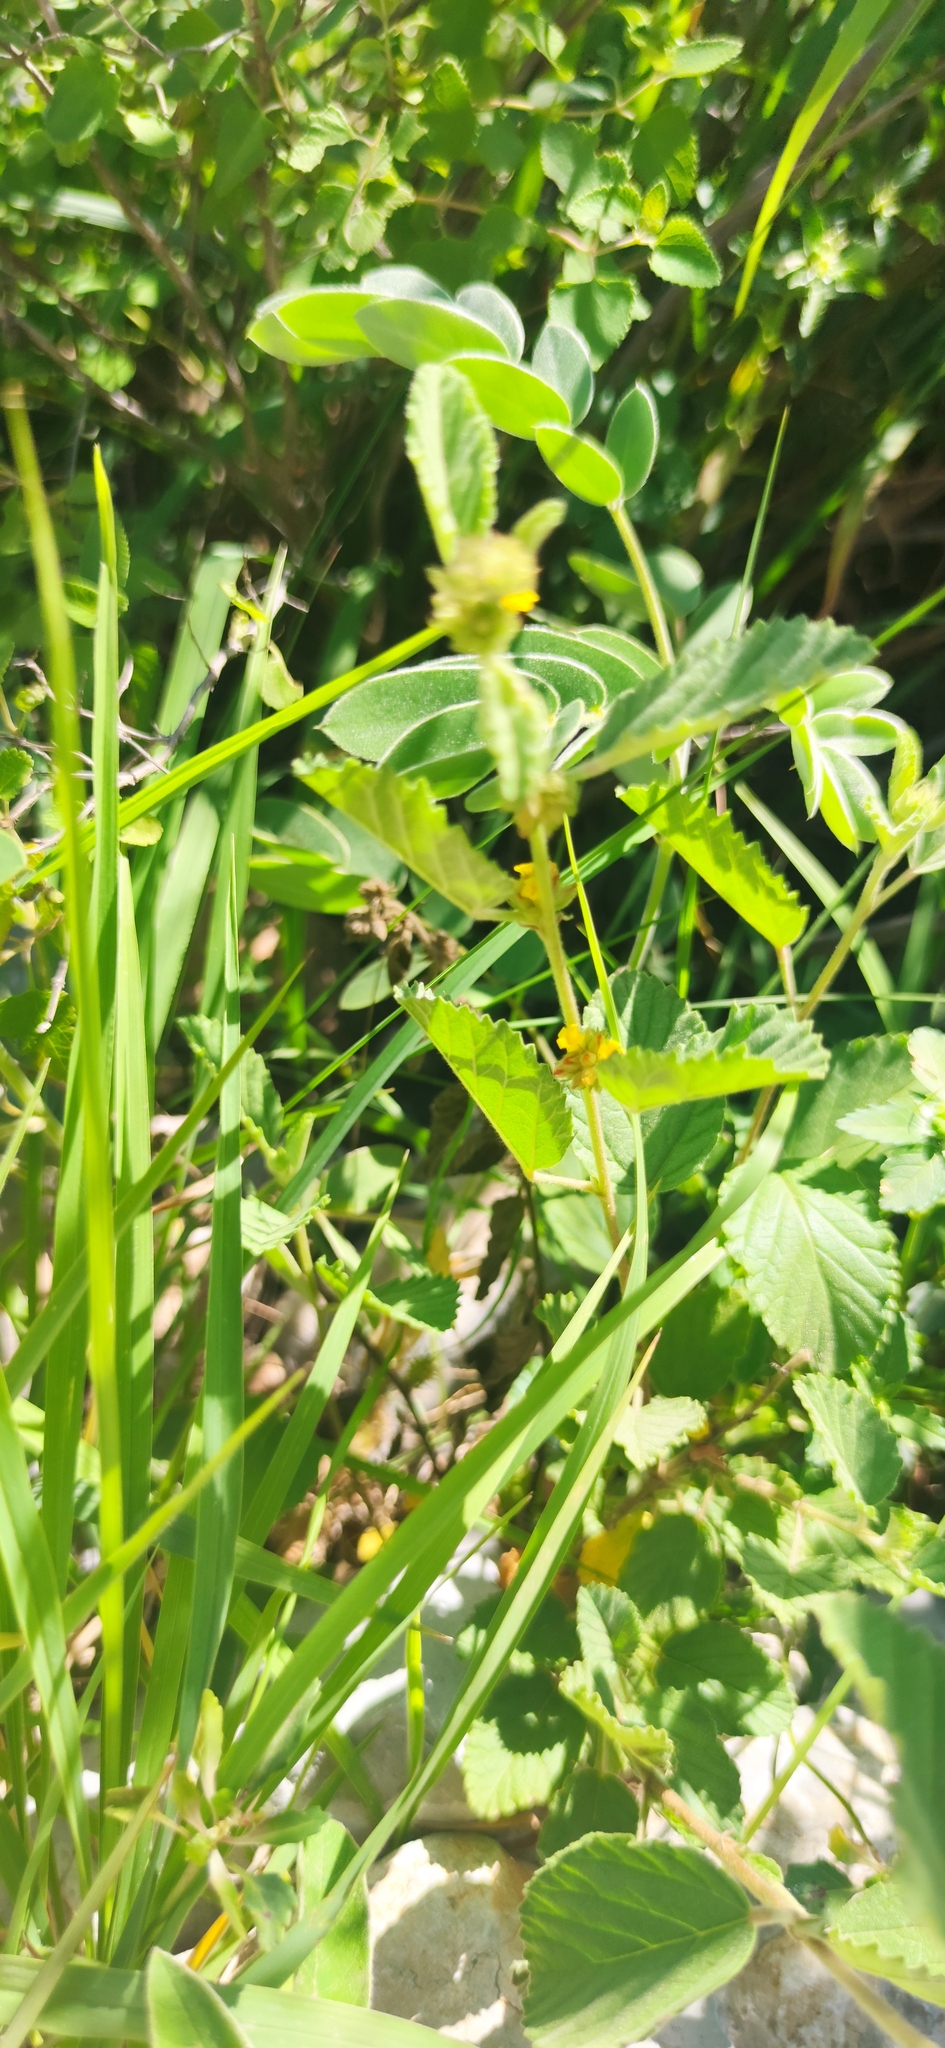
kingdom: Plantae
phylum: Tracheophyta
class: Magnoliopsida
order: Malvales
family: Malvaceae
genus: Waltheria
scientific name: Waltheria indica
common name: Leather-coat
